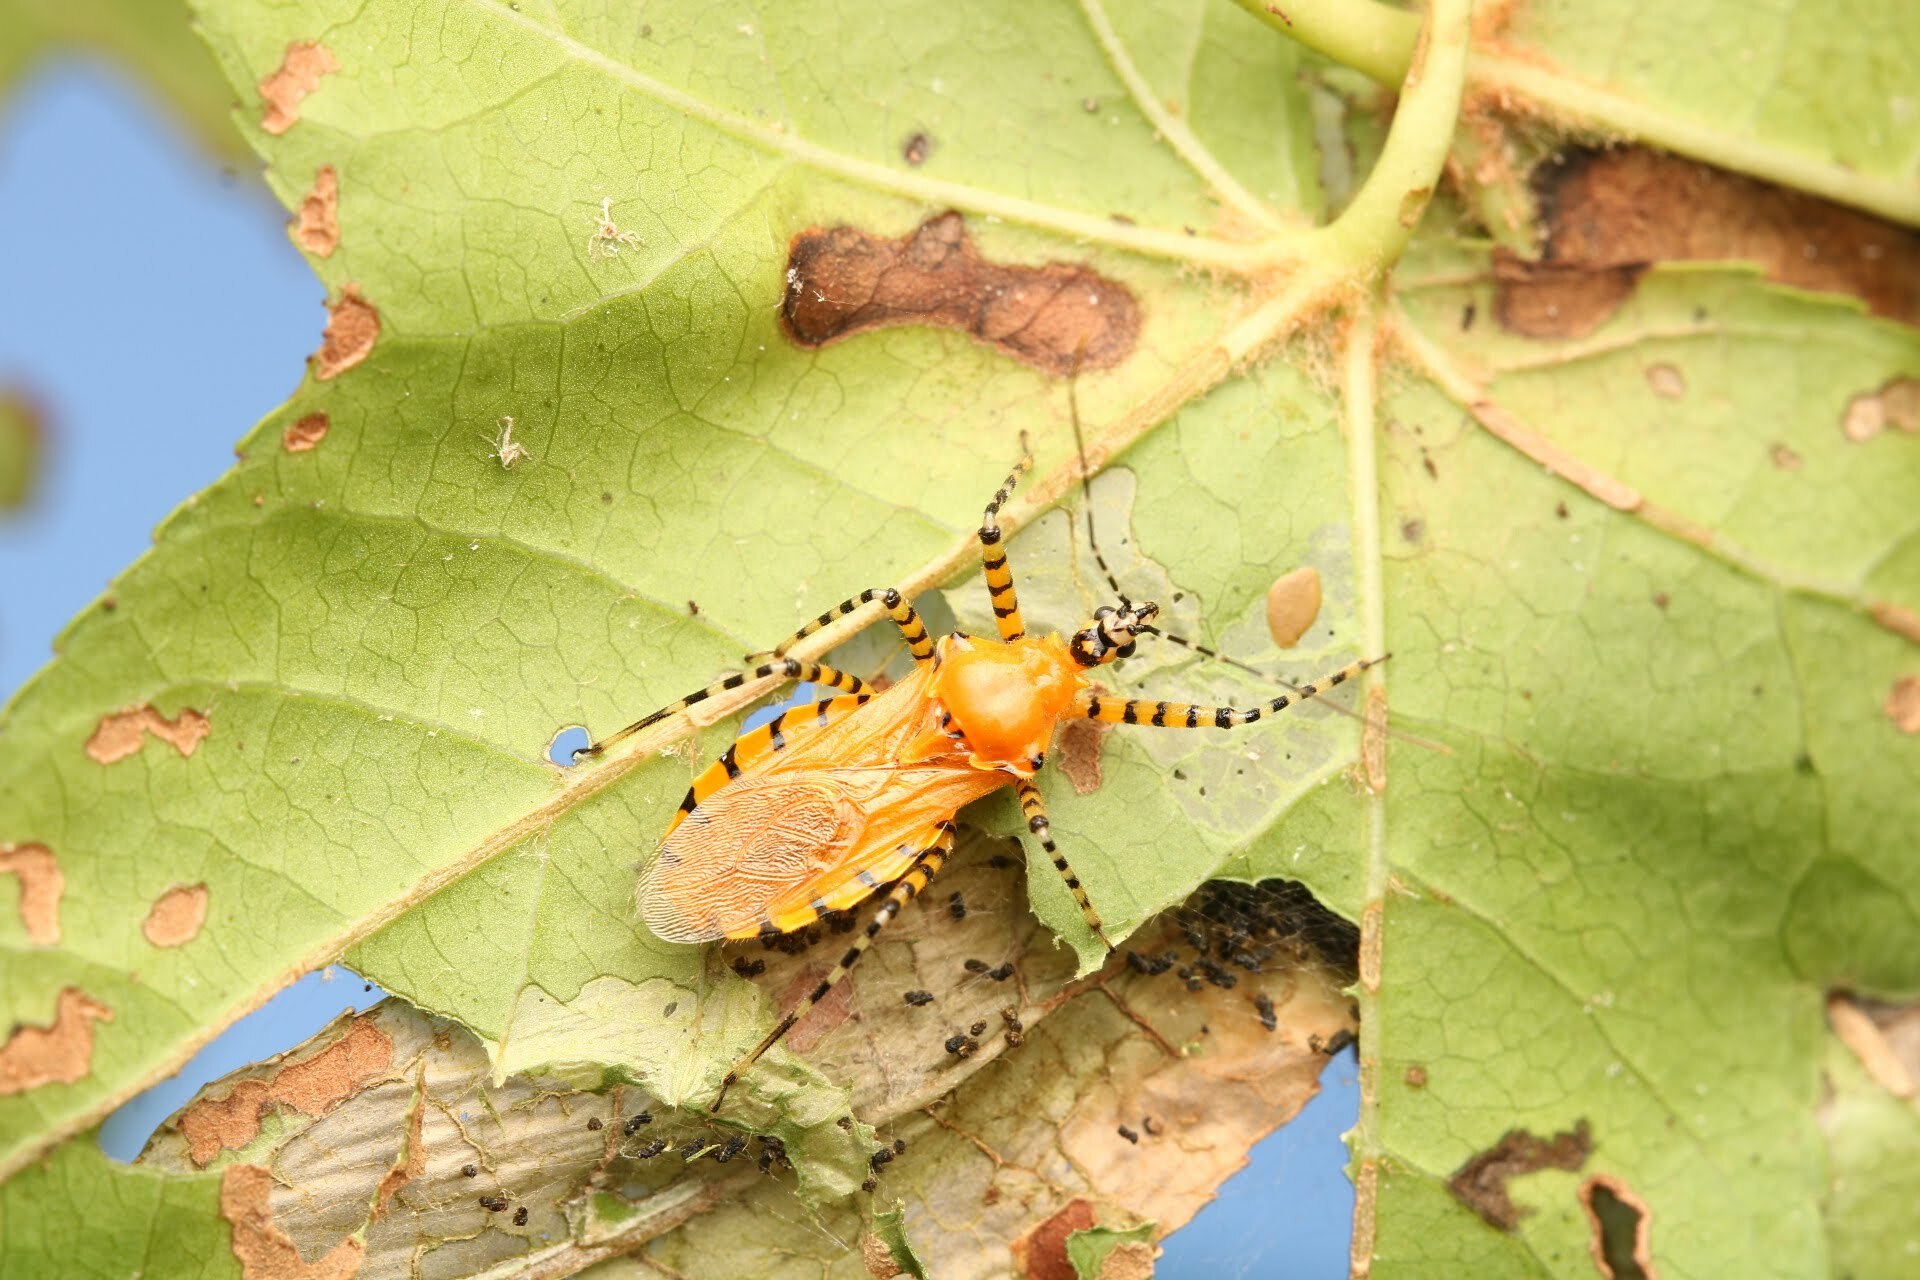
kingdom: Animalia
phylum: Arthropoda
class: Insecta
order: Hemiptera
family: Reduviidae
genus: Pselliopus
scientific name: Pselliopus barberi
